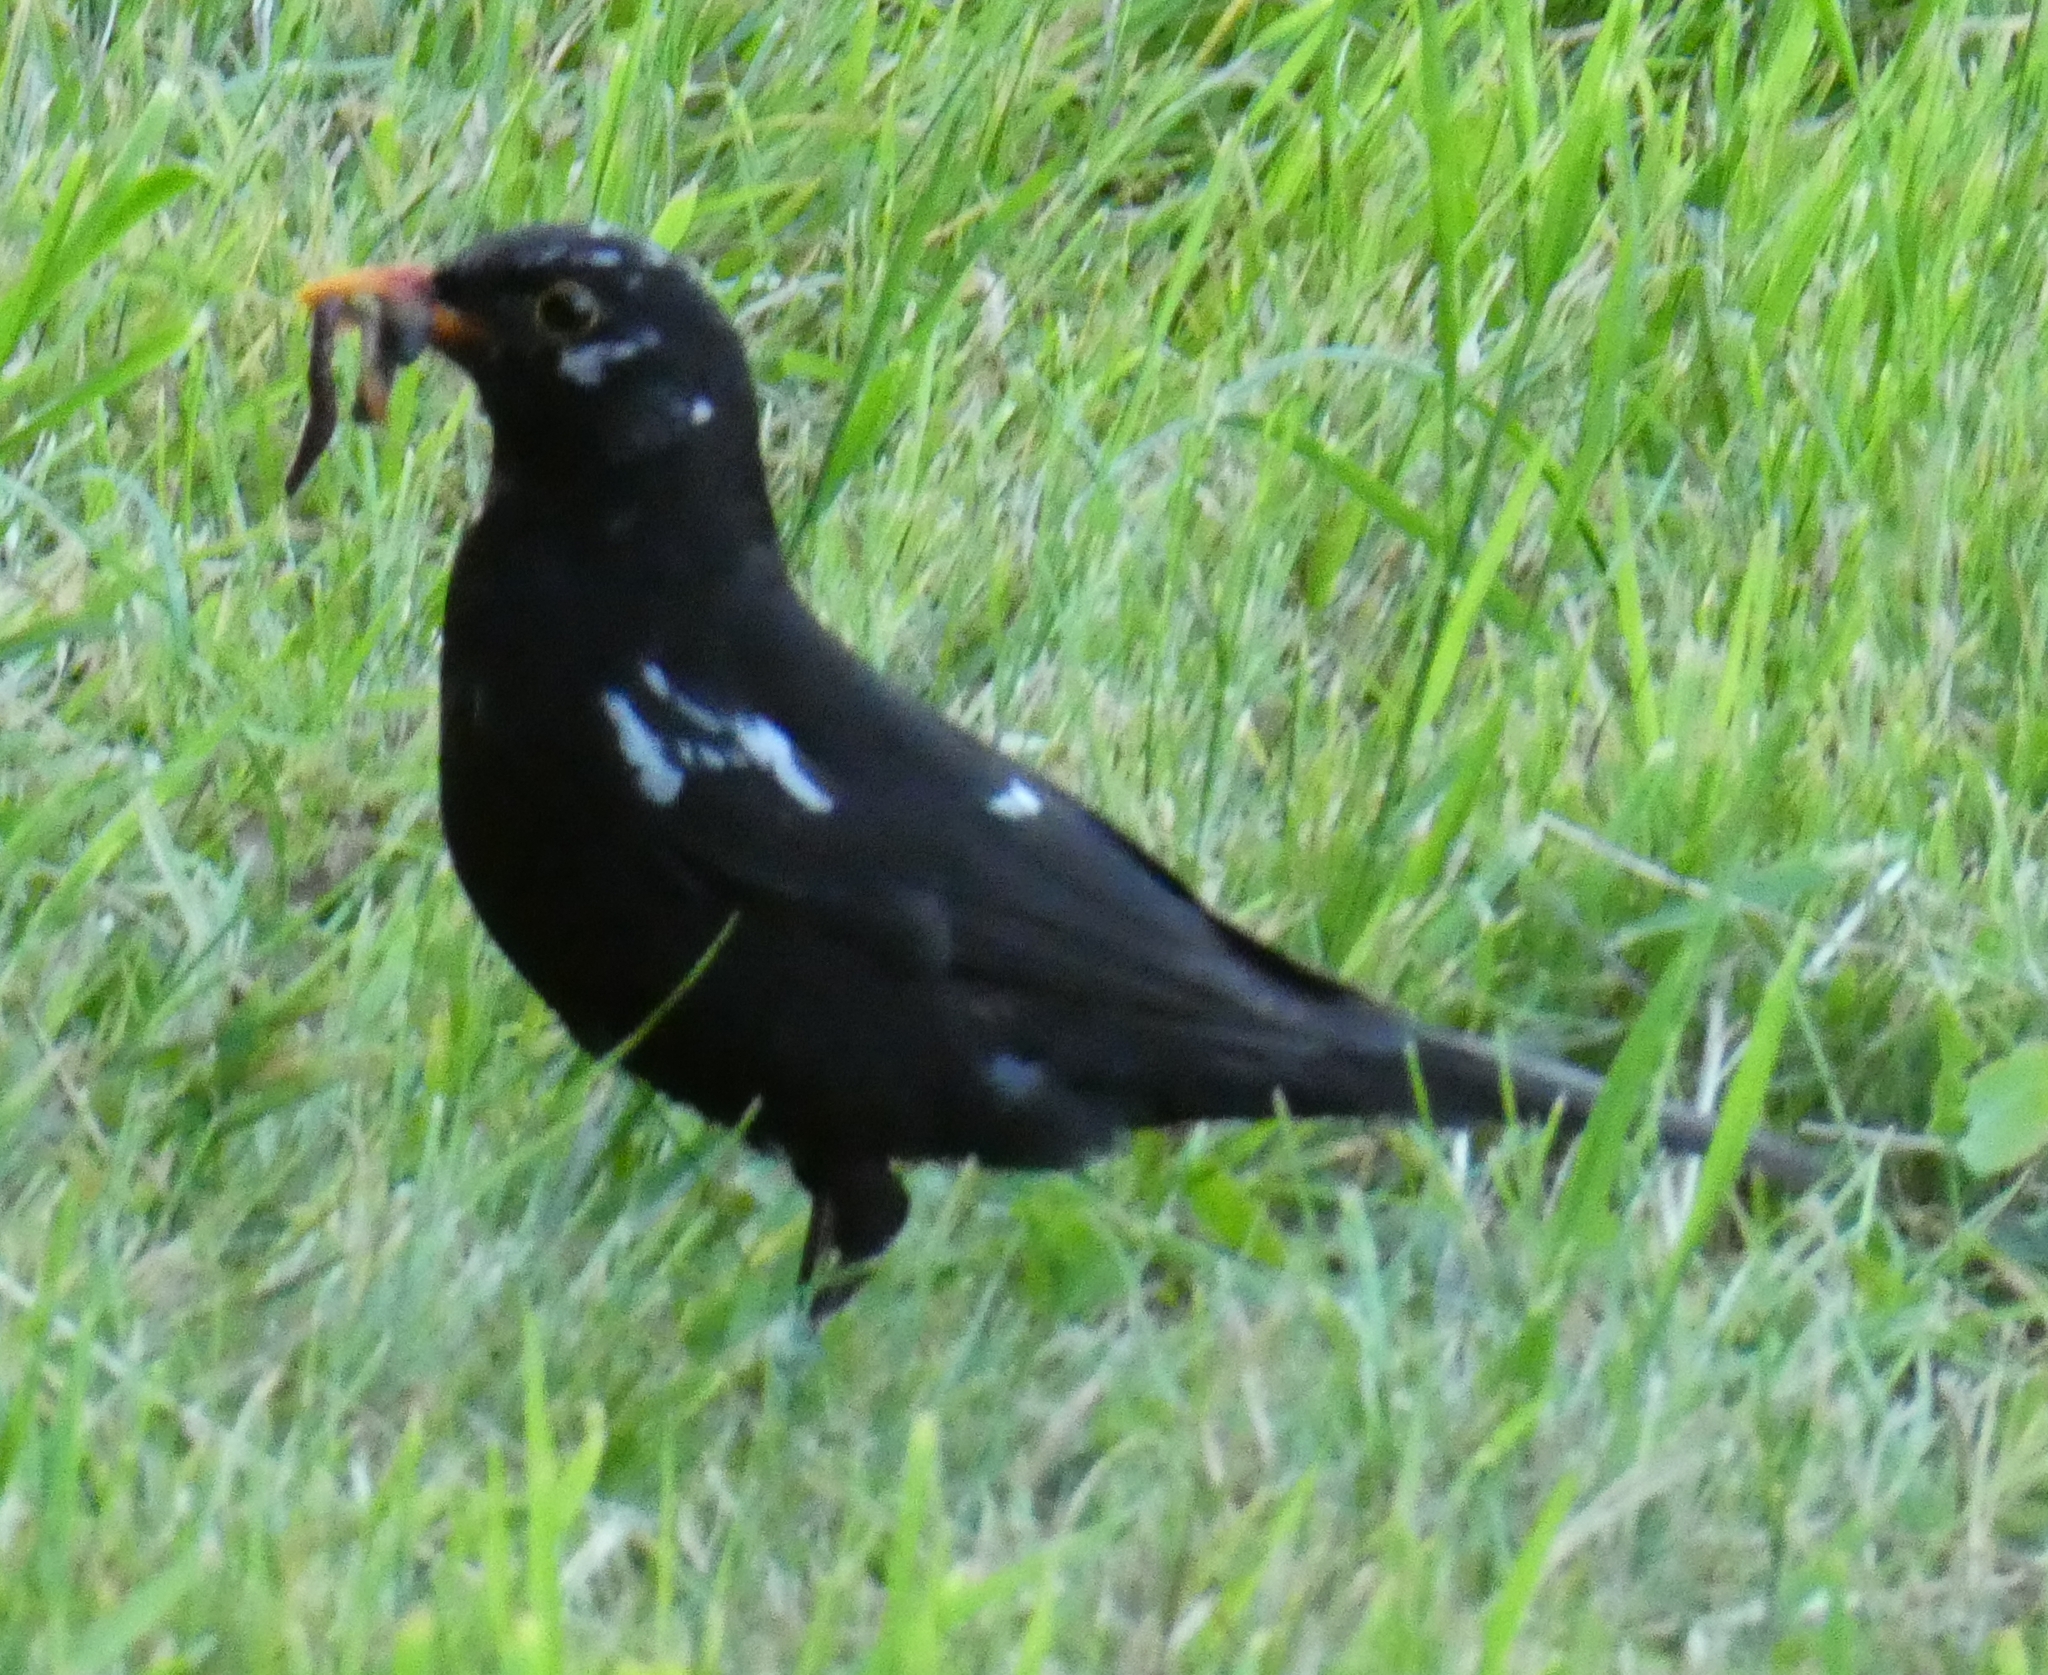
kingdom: Animalia
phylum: Chordata
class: Aves
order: Passeriformes
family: Turdidae
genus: Turdus
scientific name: Turdus merula
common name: Common blackbird
